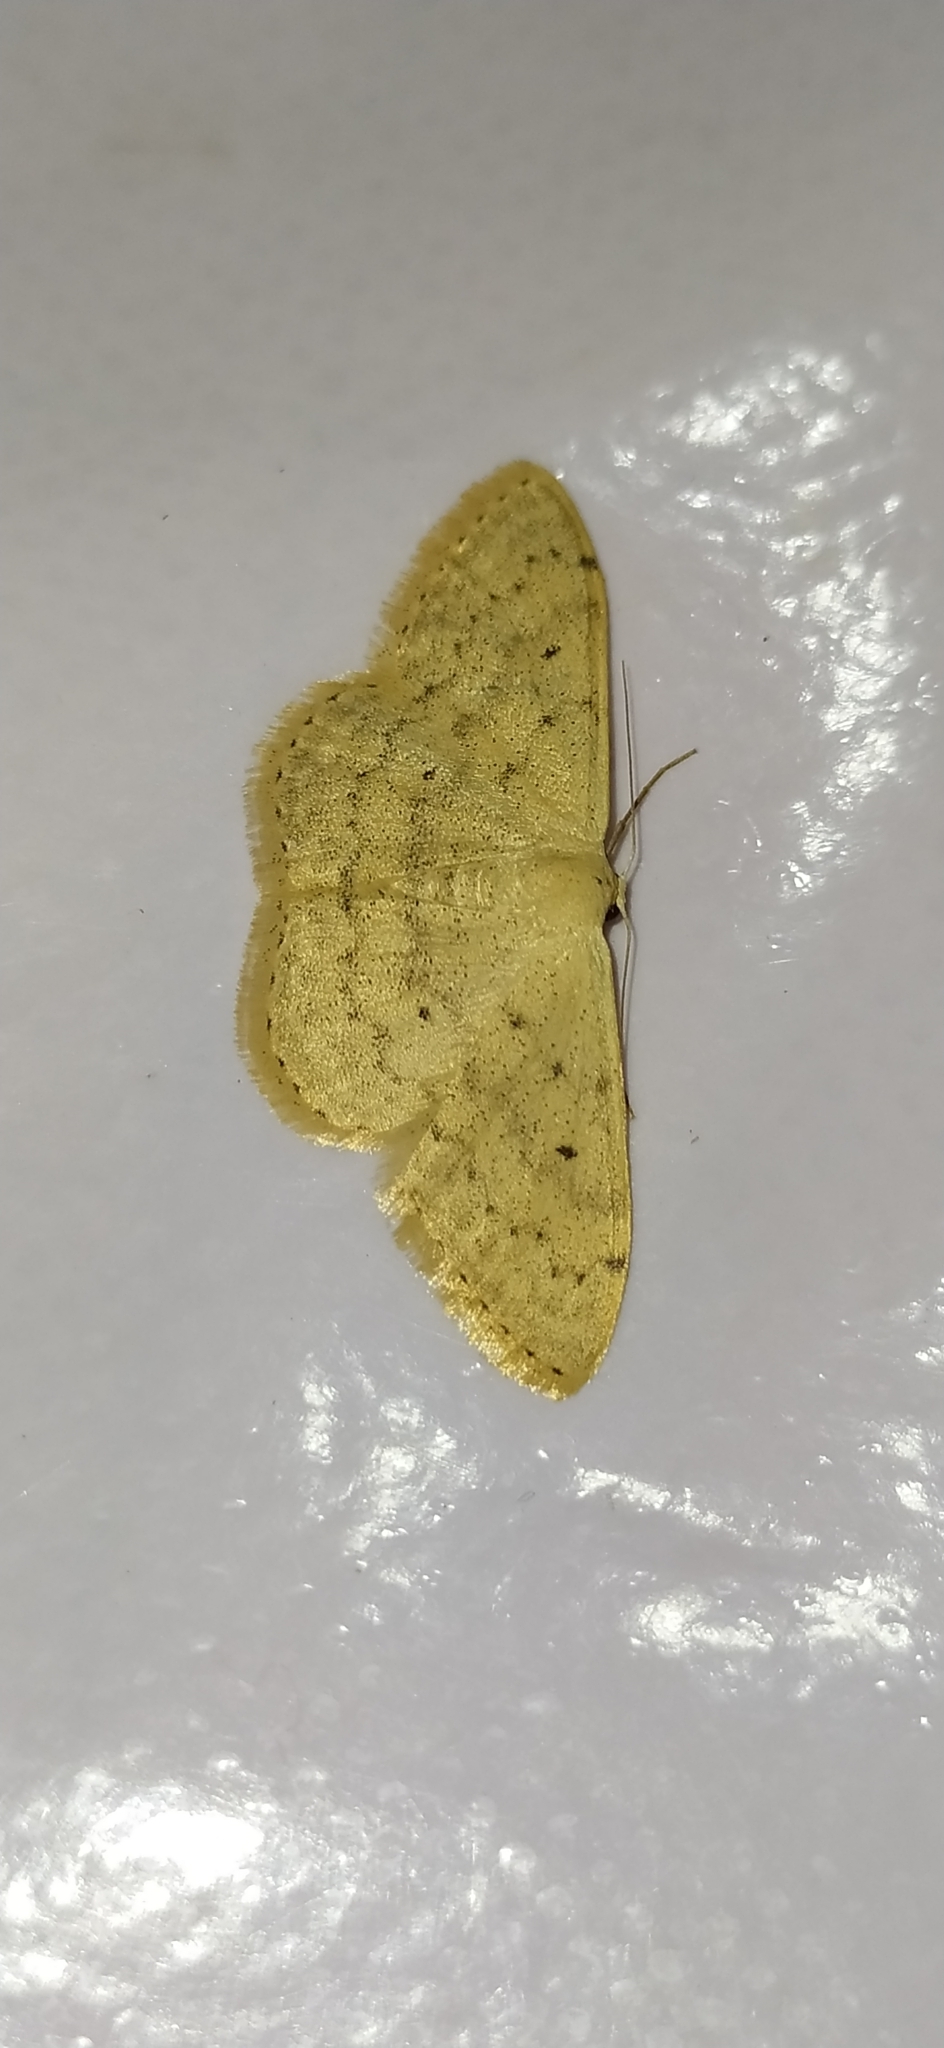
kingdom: Animalia
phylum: Arthropoda
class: Insecta
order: Lepidoptera
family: Geometridae
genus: Scopula
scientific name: Scopula beckeraria
